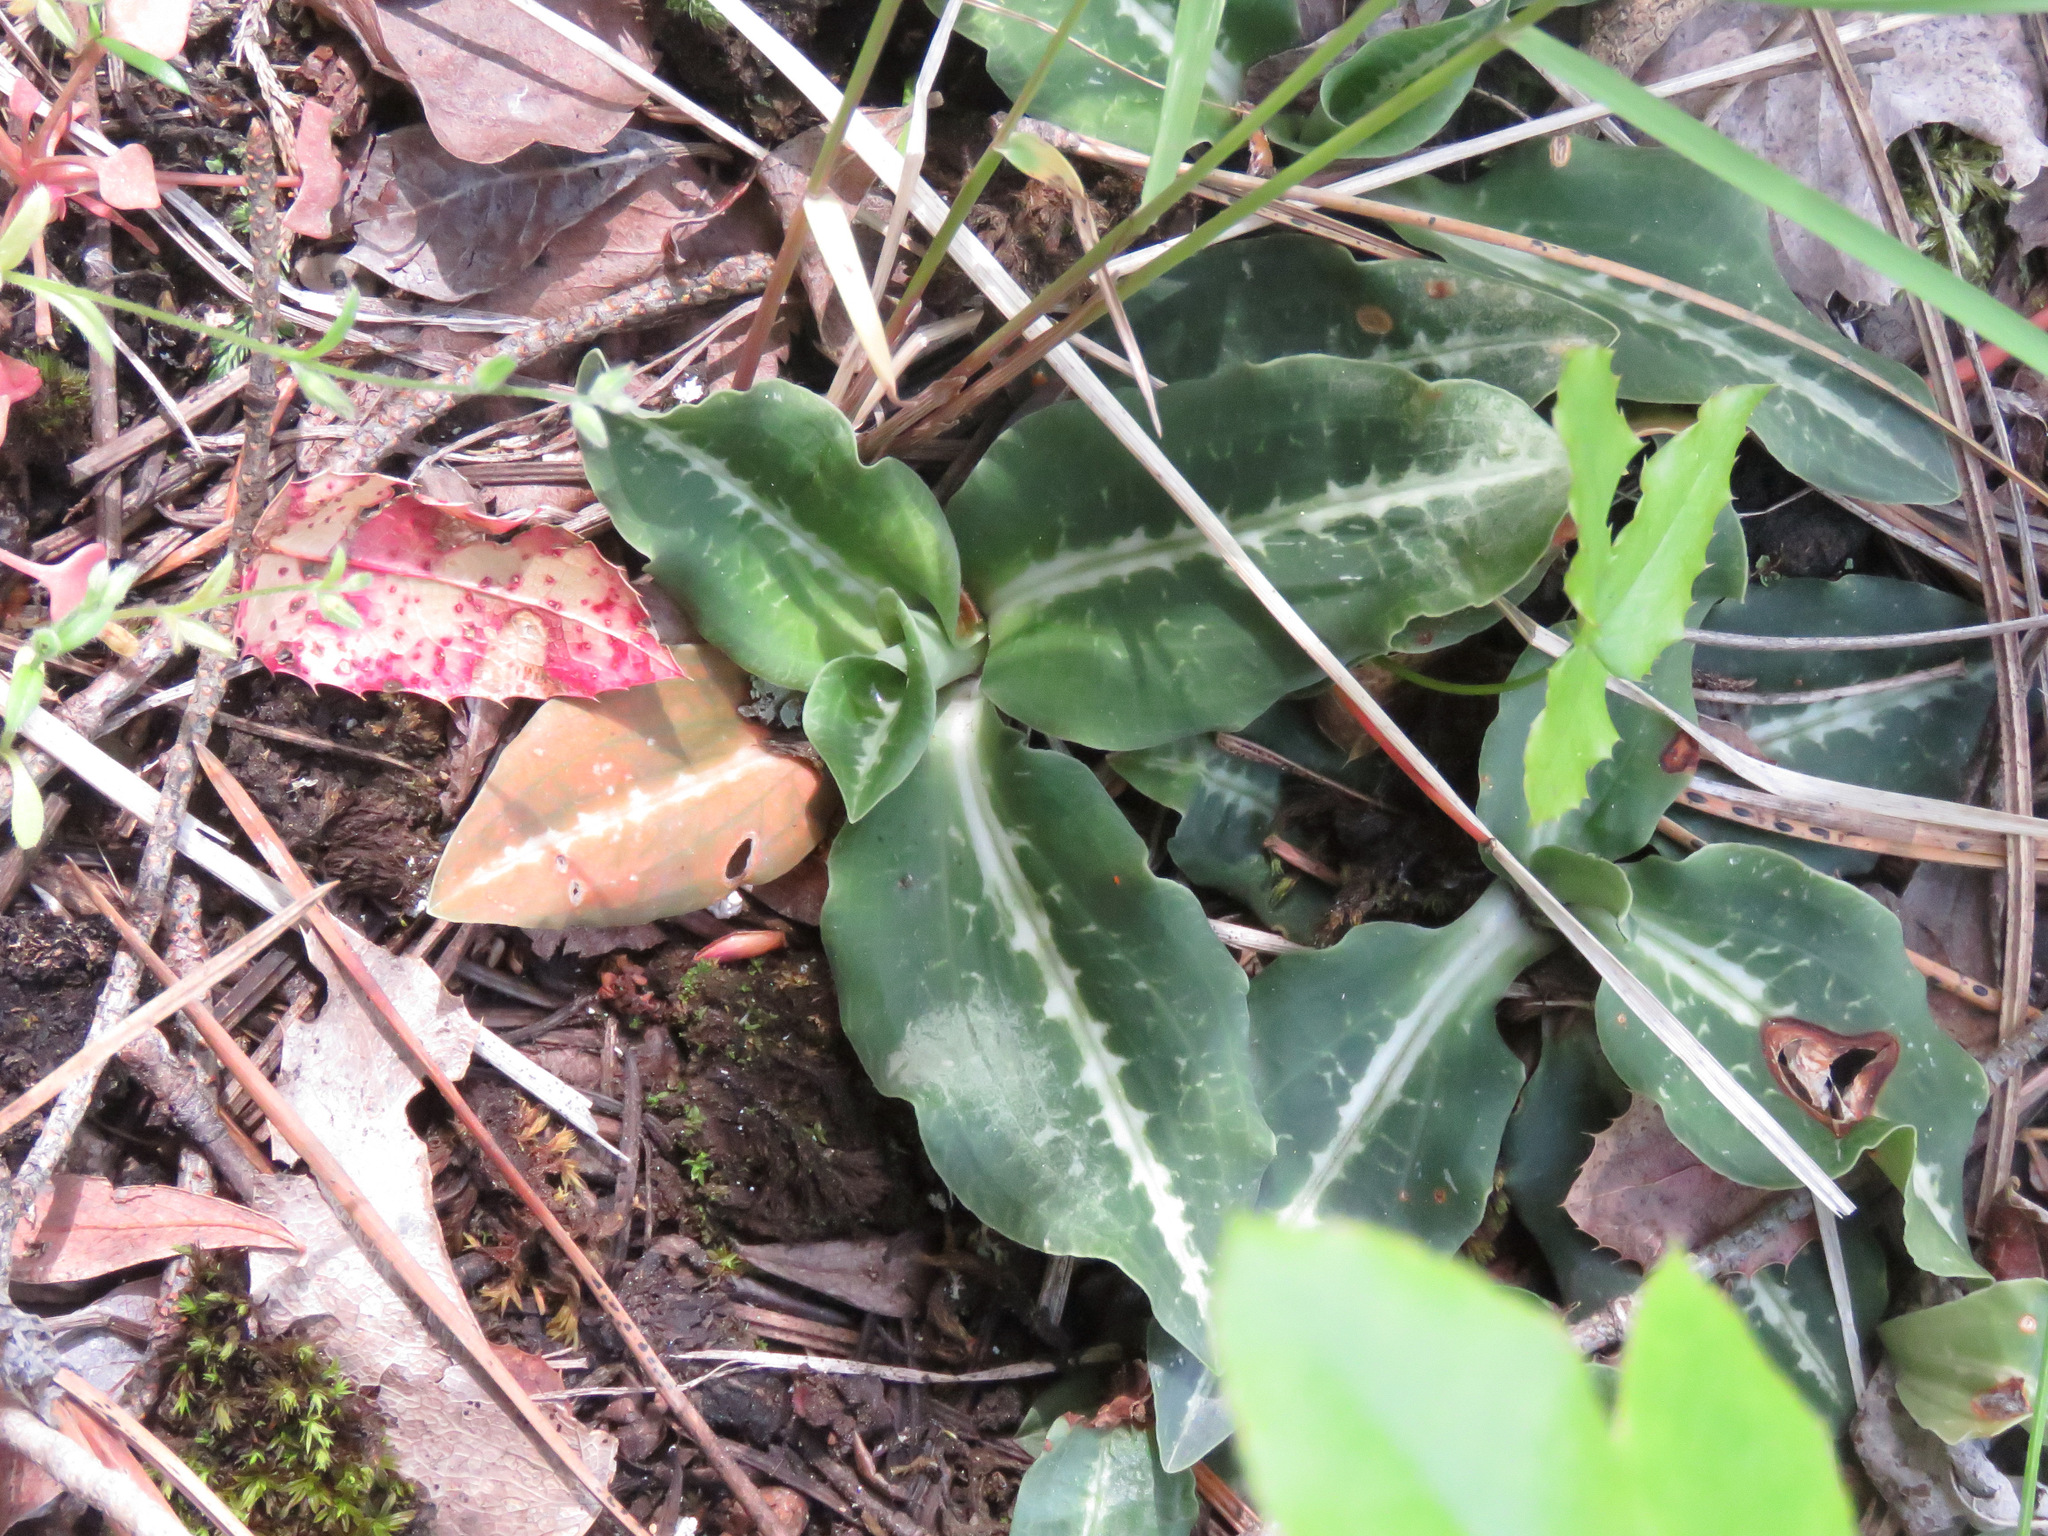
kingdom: Plantae
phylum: Tracheophyta
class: Liliopsida
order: Asparagales
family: Orchidaceae
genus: Goodyera
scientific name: Goodyera oblongifolia
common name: Giant rattlesnake-plantain
